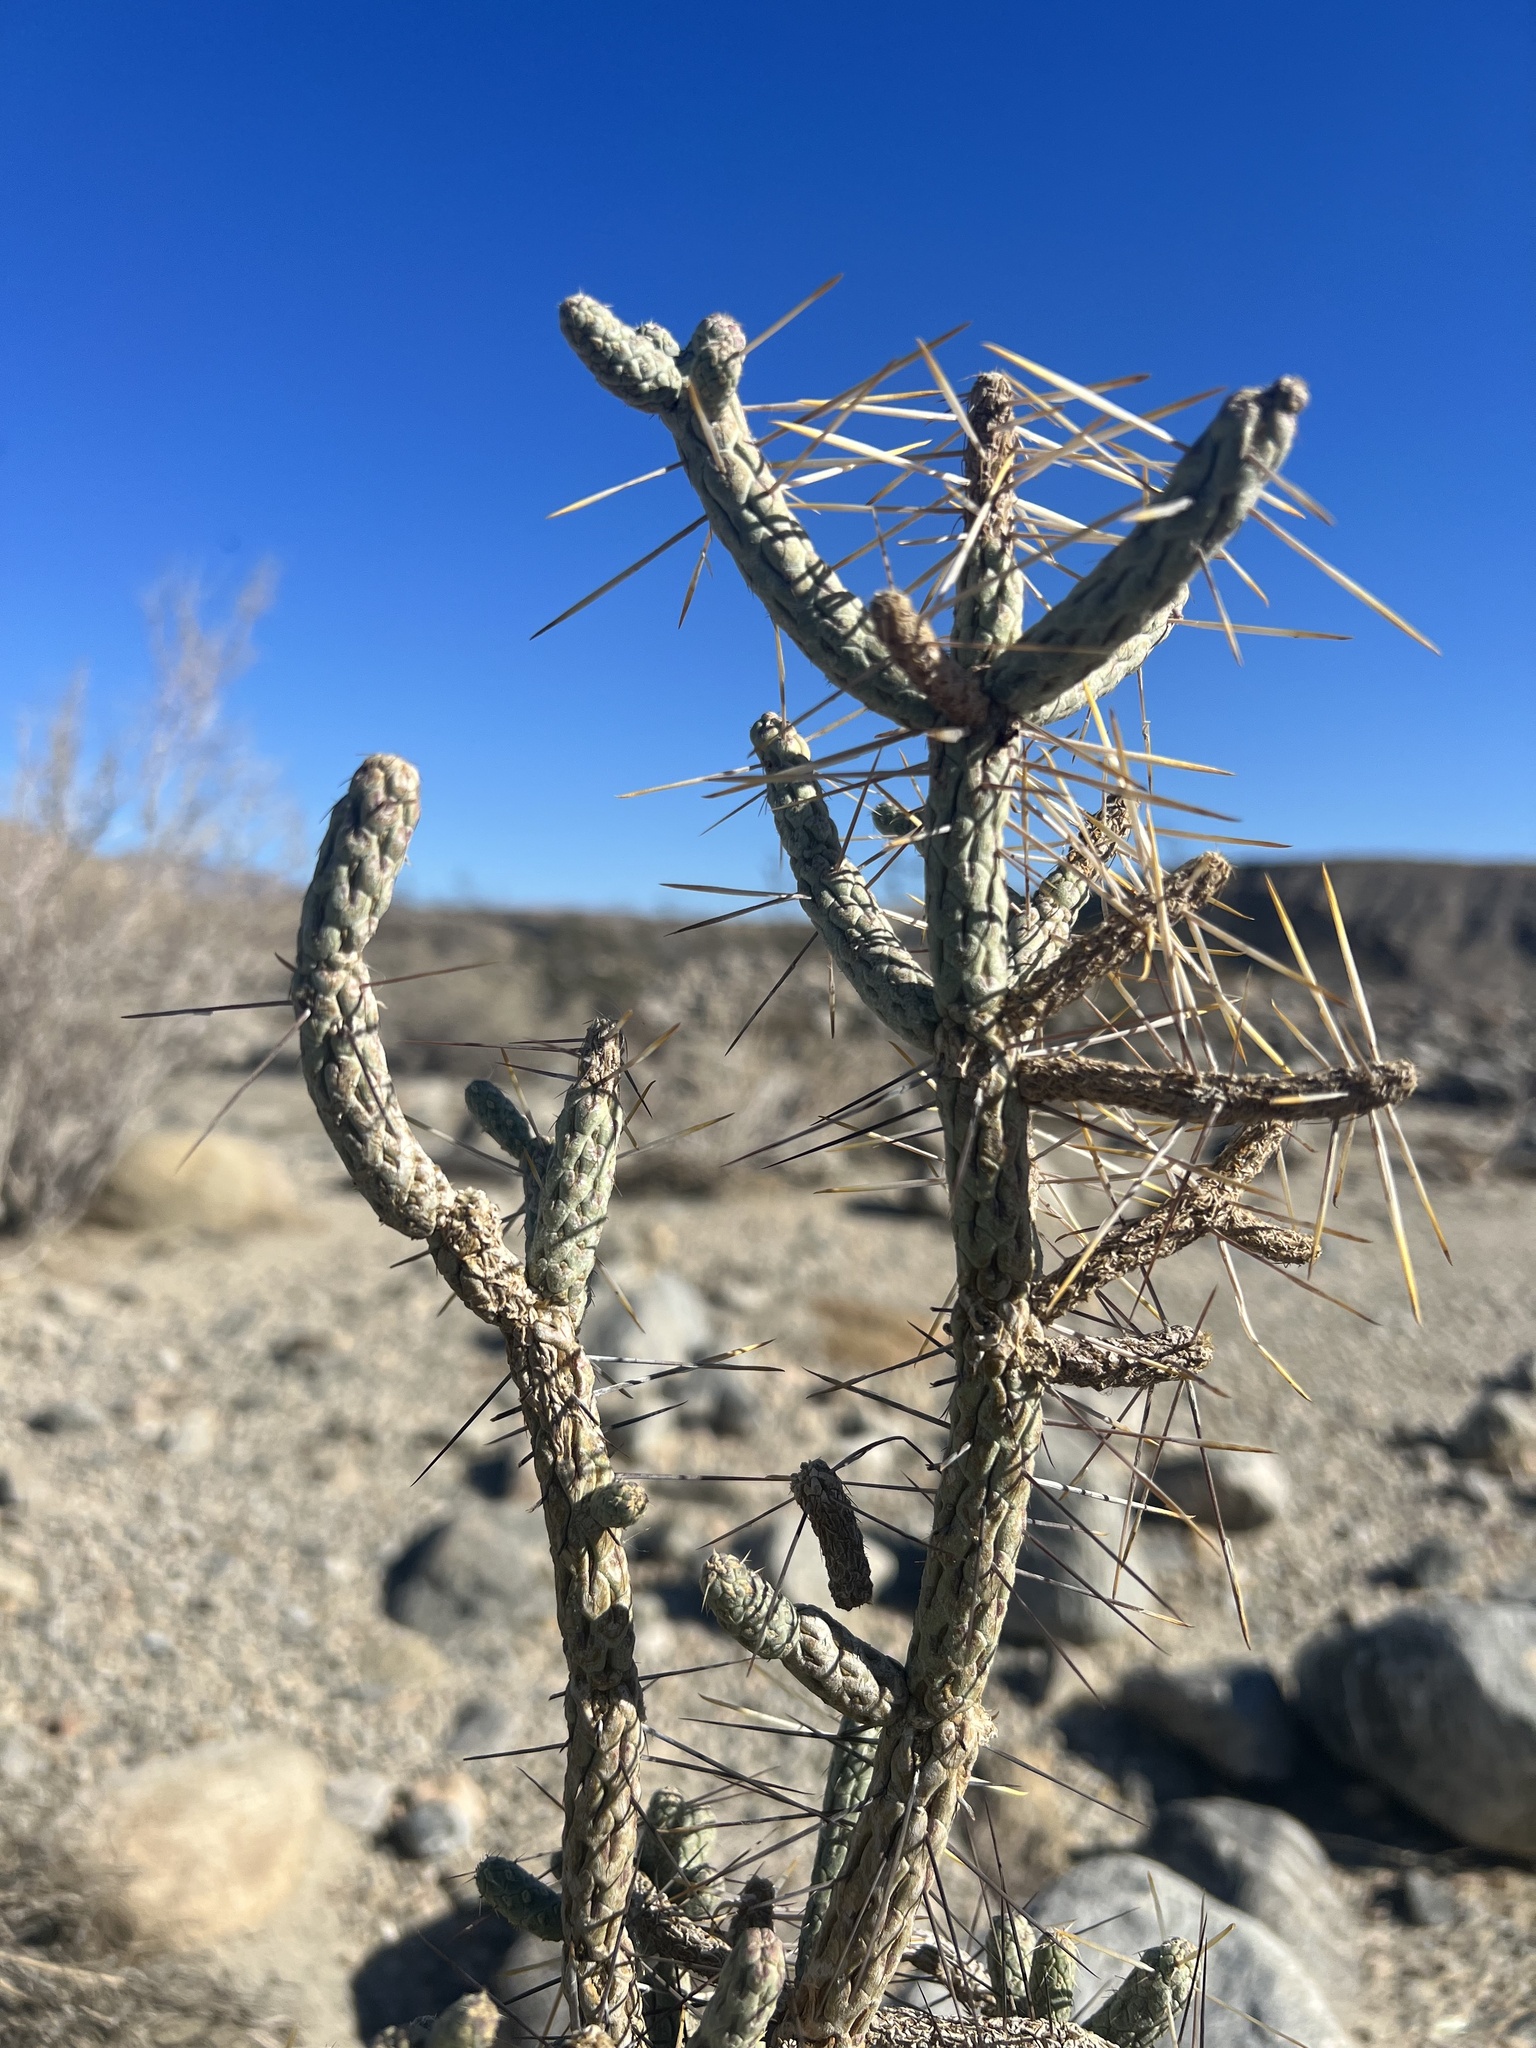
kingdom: Plantae
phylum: Tracheophyta
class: Magnoliopsida
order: Caryophyllales
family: Cactaceae
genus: Cylindropuntia
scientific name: Cylindropuntia ramosissima
